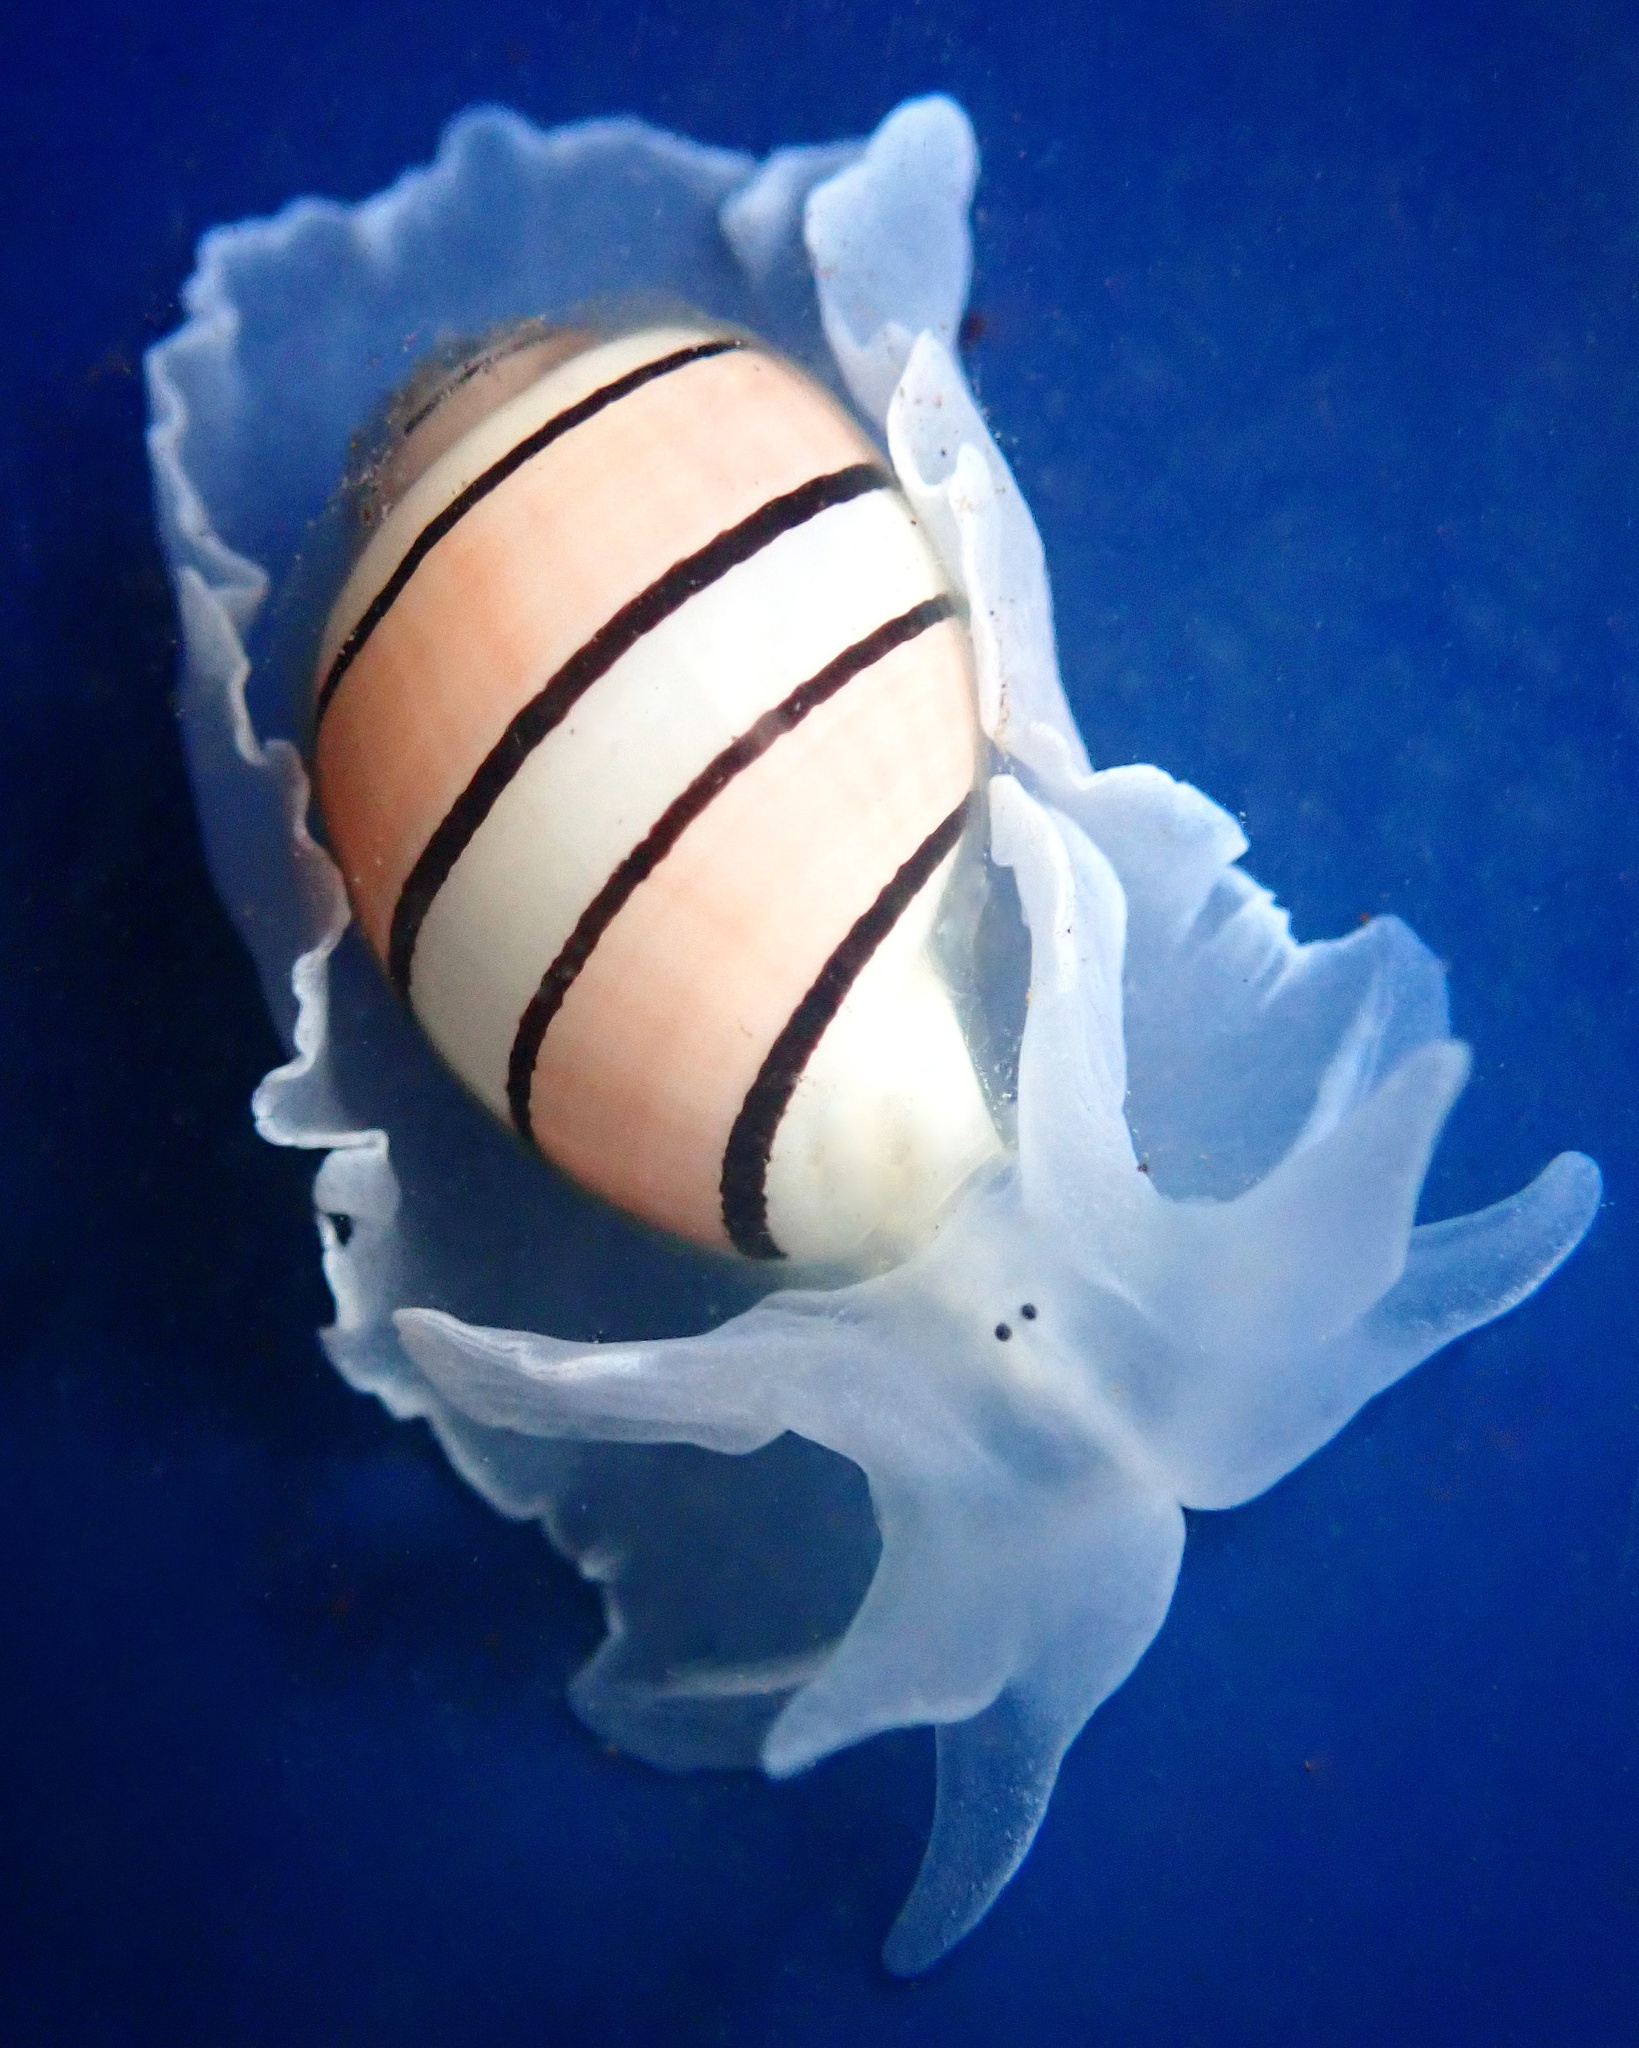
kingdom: Animalia
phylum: Mollusca
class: Gastropoda
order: Cephalaspidea
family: Aplustridae
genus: Aplustrum
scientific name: Aplustrum amplustre
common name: Royal paperbubble
